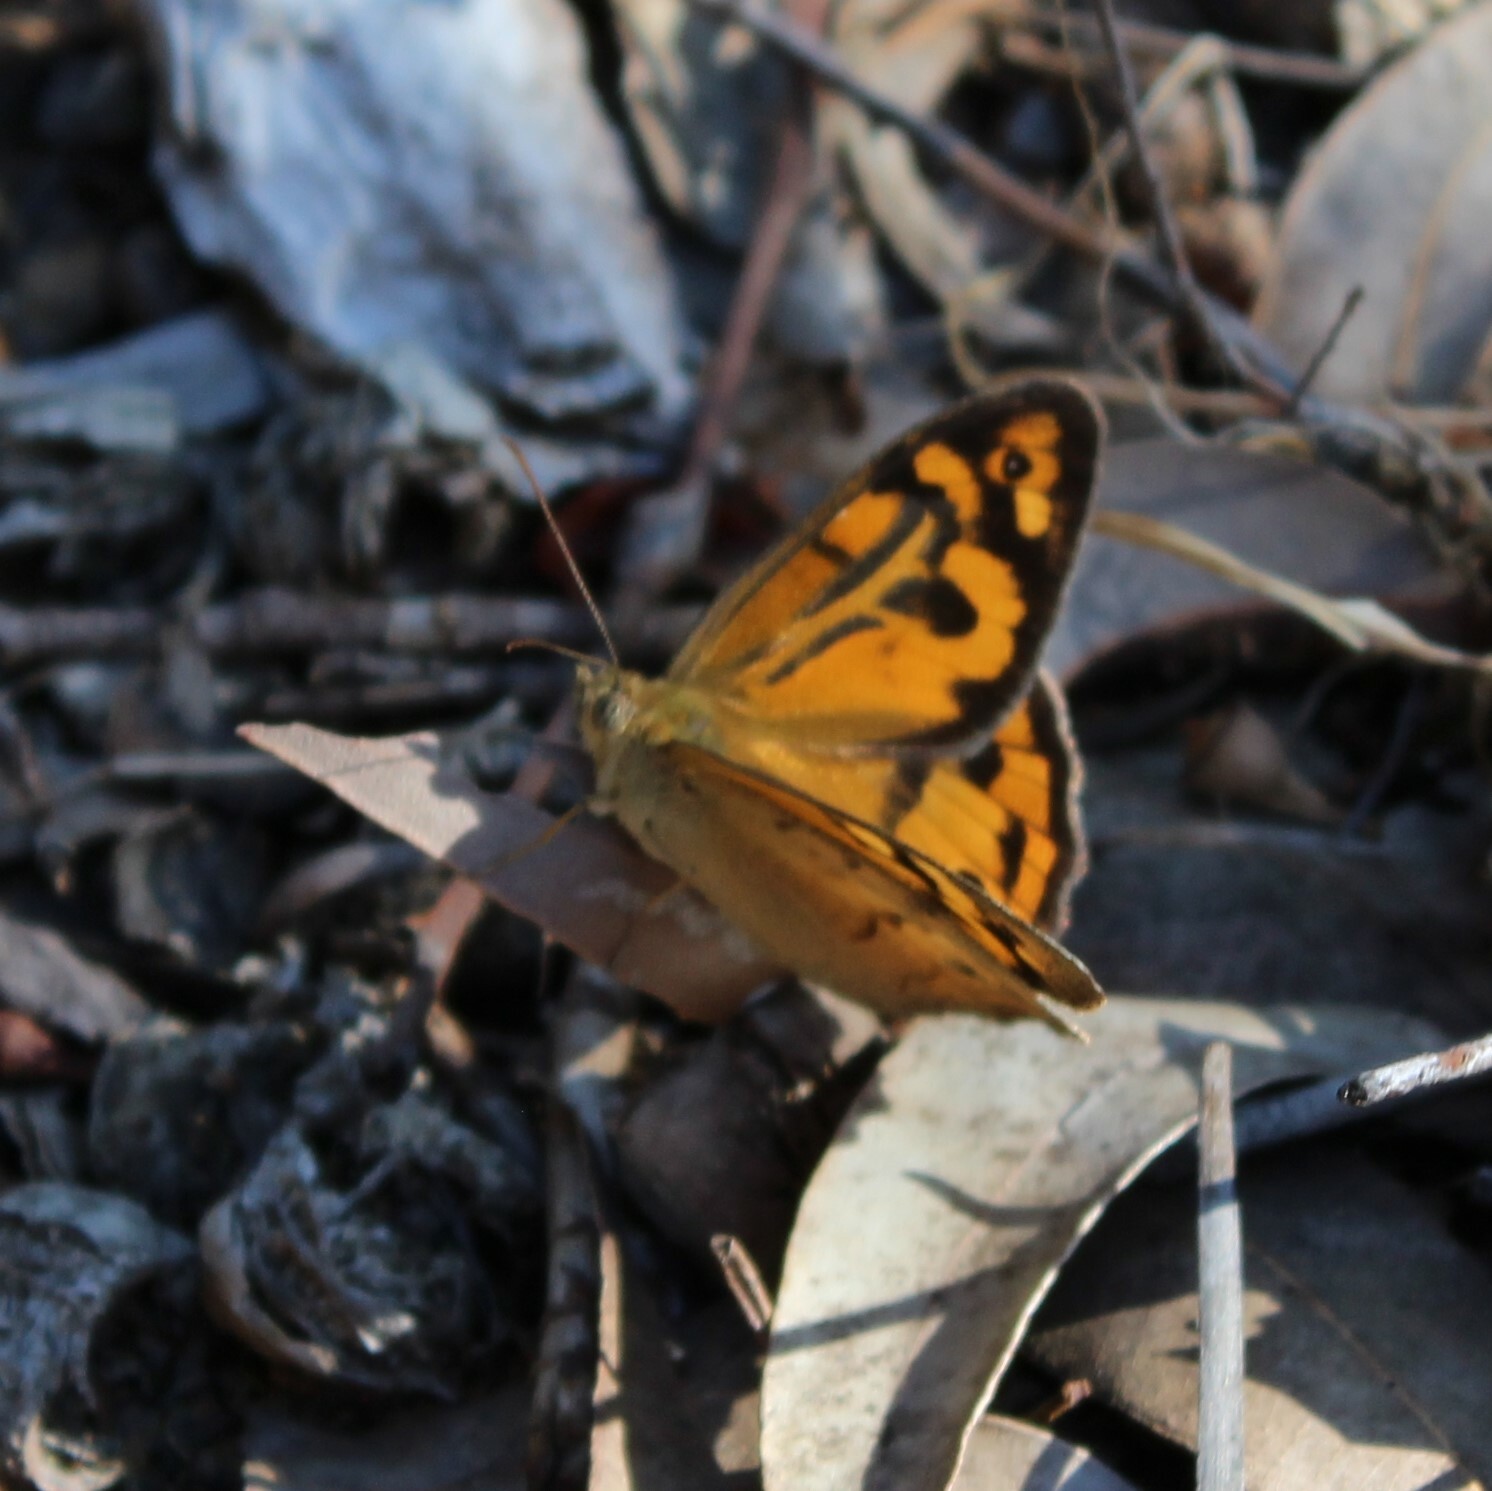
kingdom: Animalia
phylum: Arthropoda
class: Insecta
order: Lepidoptera
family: Nymphalidae
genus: Heteronympha
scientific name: Heteronympha merope
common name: Common brown
